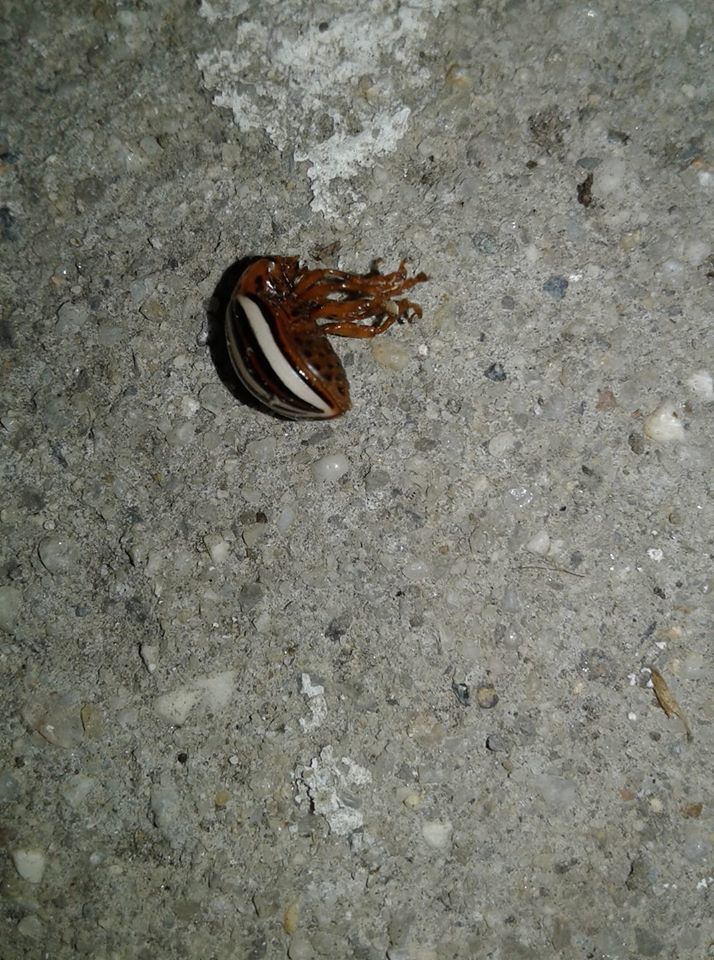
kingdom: Animalia
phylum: Arthropoda
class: Insecta
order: Coleoptera
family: Chrysomelidae
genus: Leptinotarsa
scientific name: Leptinotarsa juncta
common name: False potato beetle
